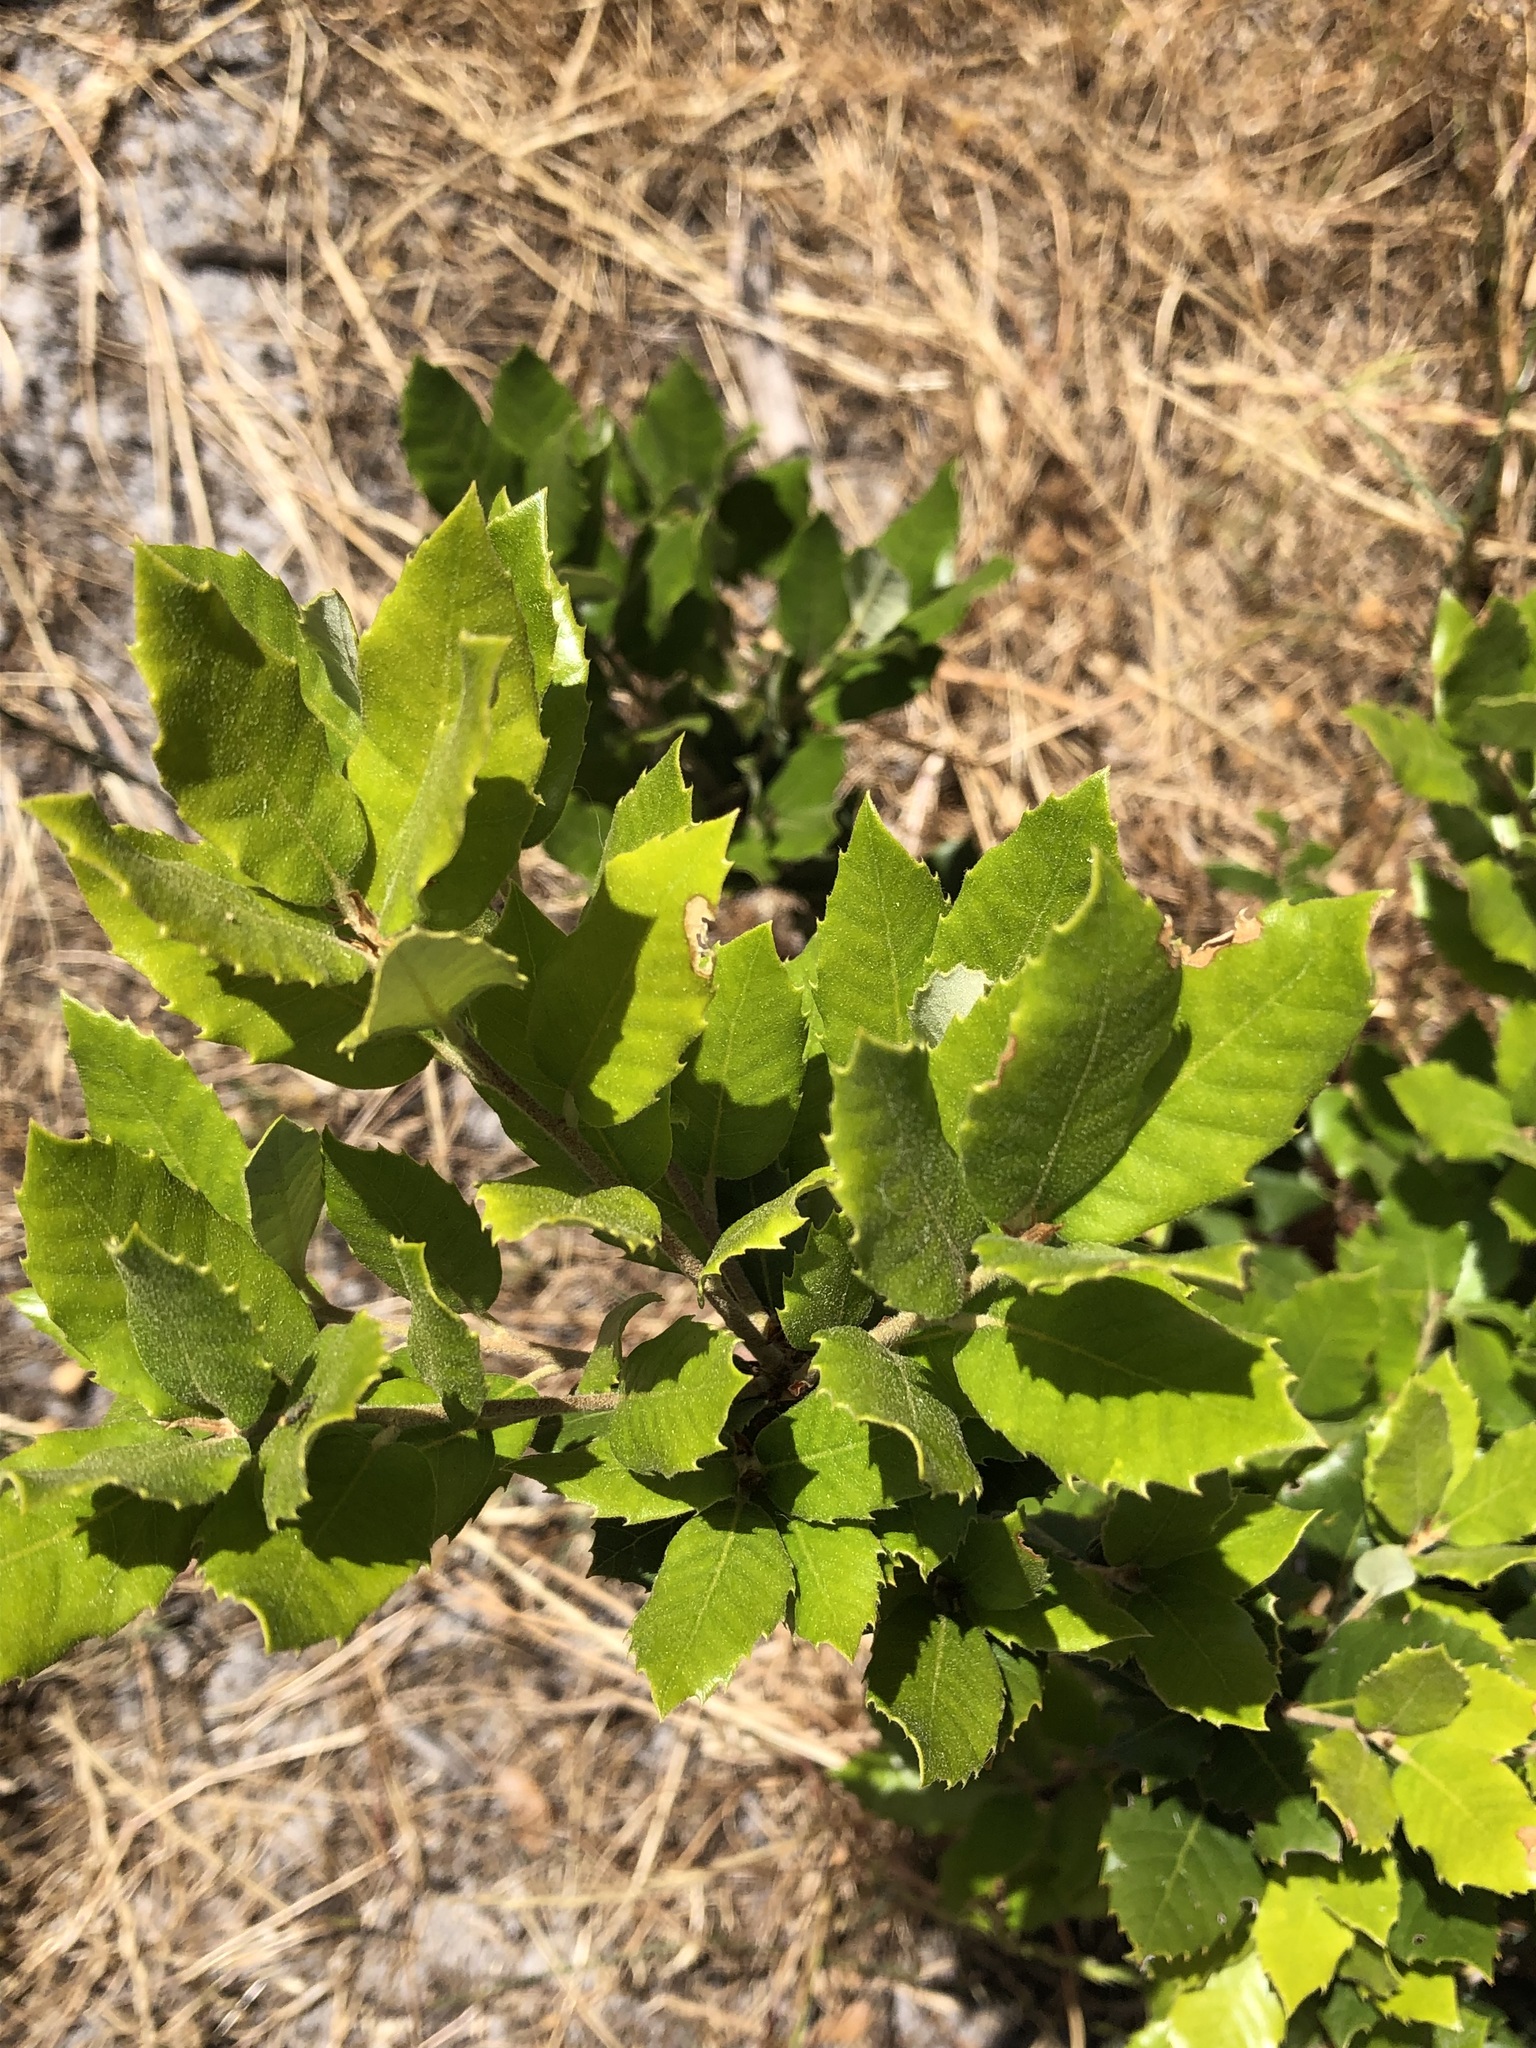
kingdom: Plantae
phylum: Tracheophyta
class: Magnoliopsida
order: Fagales
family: Fagaceae
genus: Quercus
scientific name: Quercus ilex
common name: Evergreen oak
